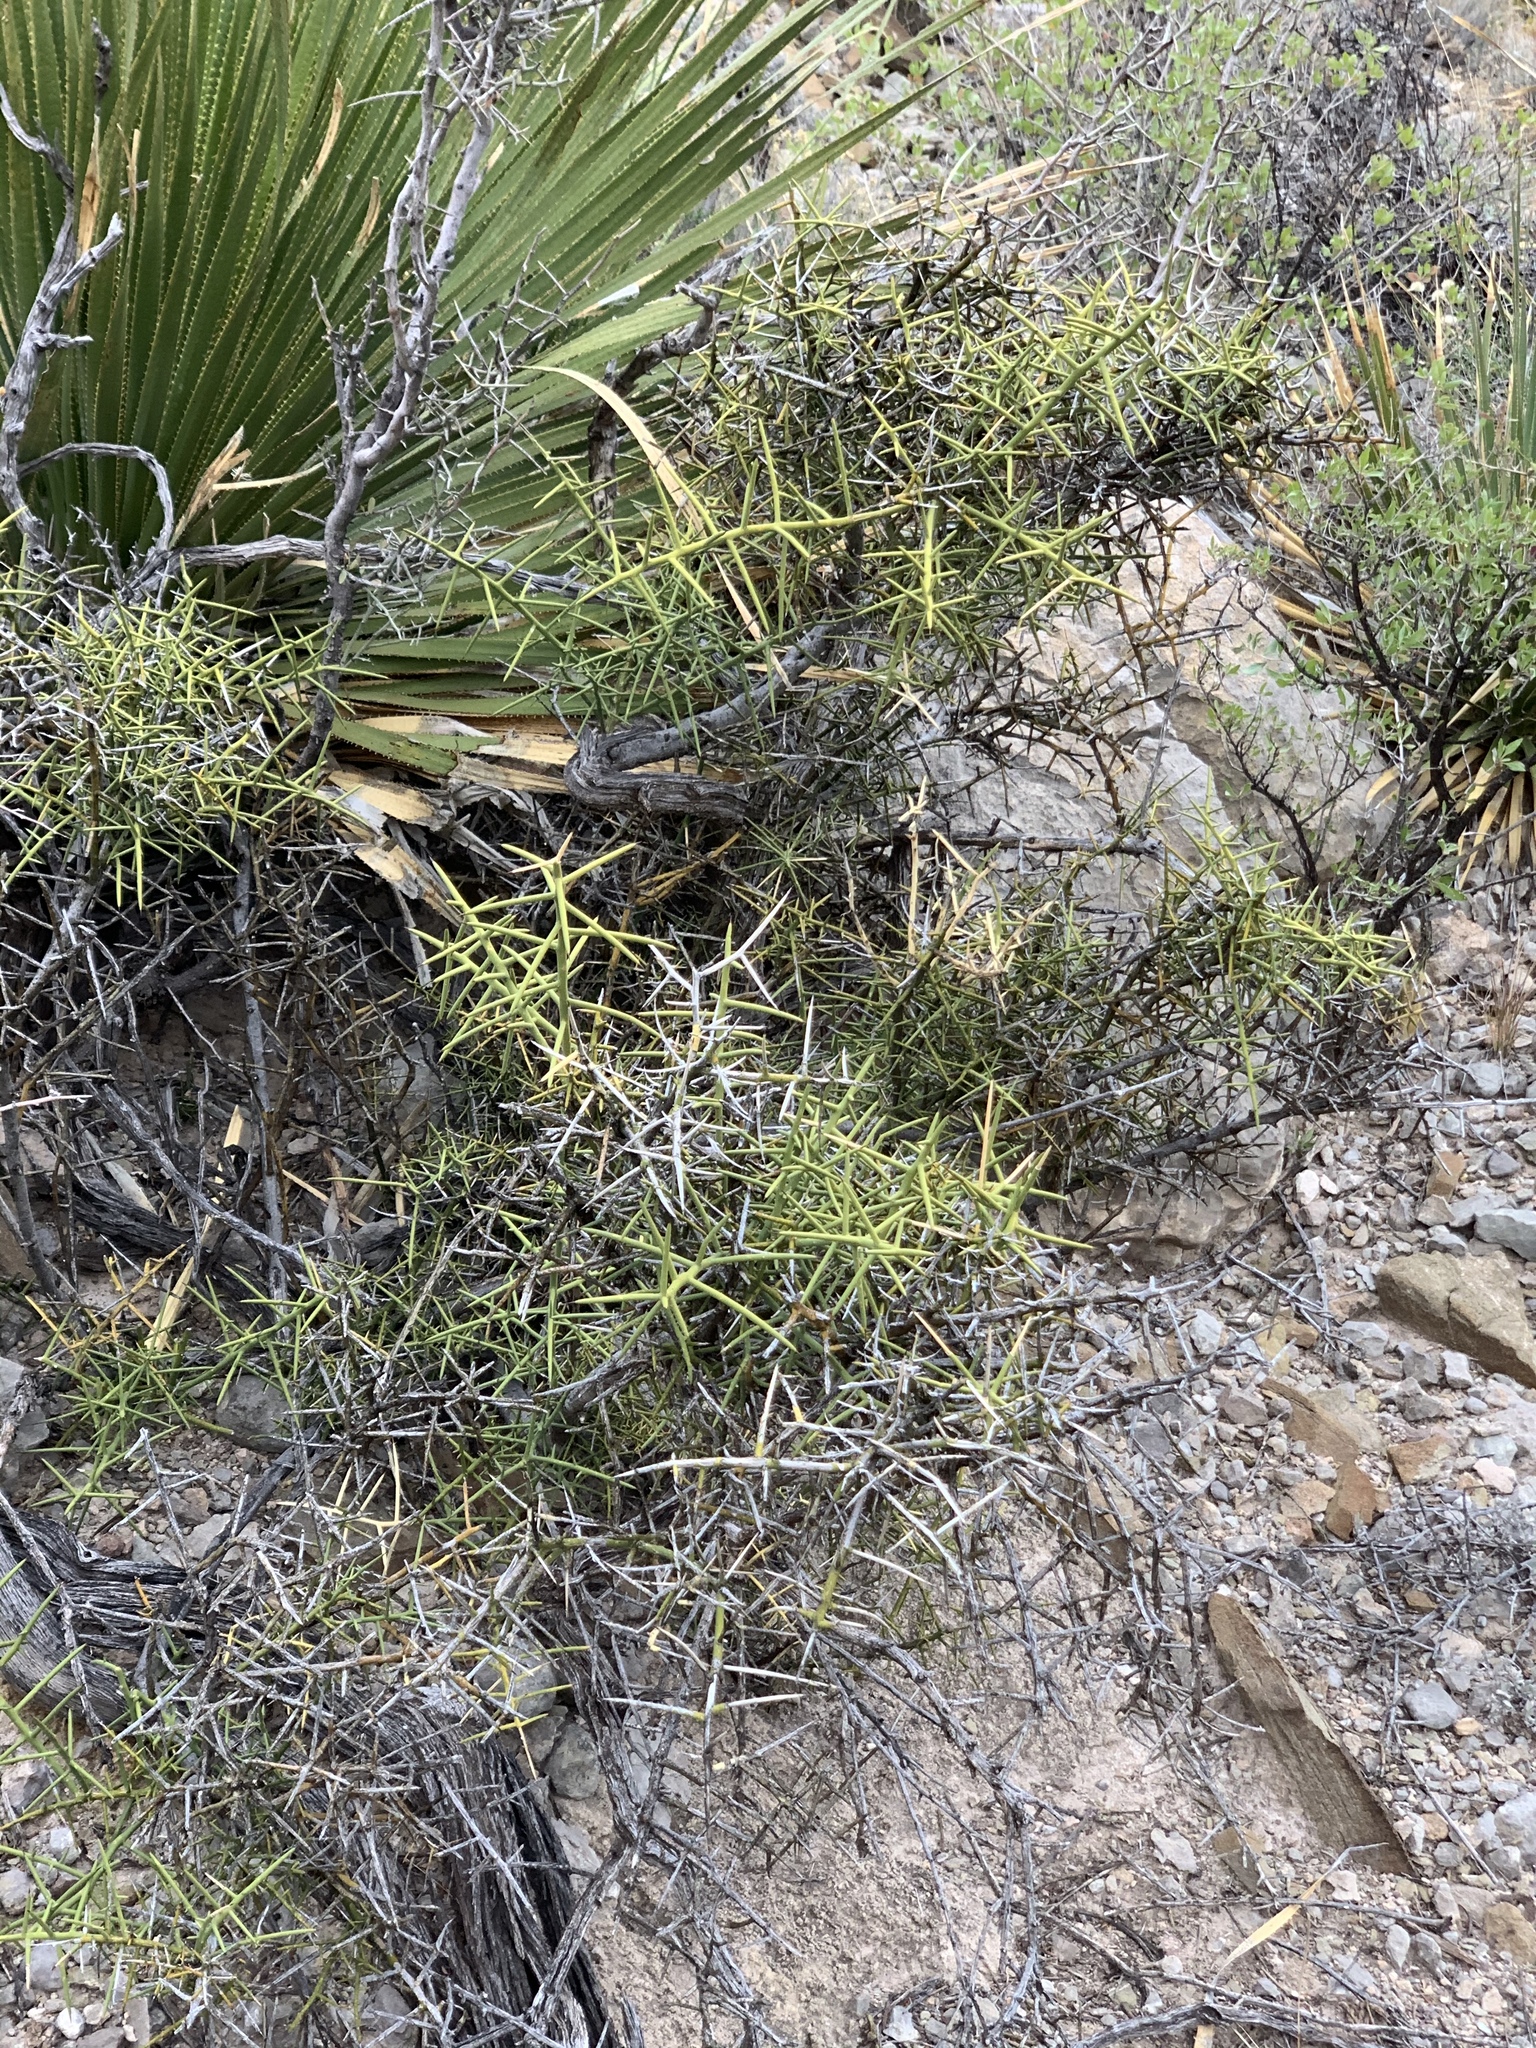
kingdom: Plantae
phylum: Tracheophyta
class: Magnoliopsida
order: Brassicales
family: Koeberliniaceae
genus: Koeberlinia
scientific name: Koeberlinia spinosa
